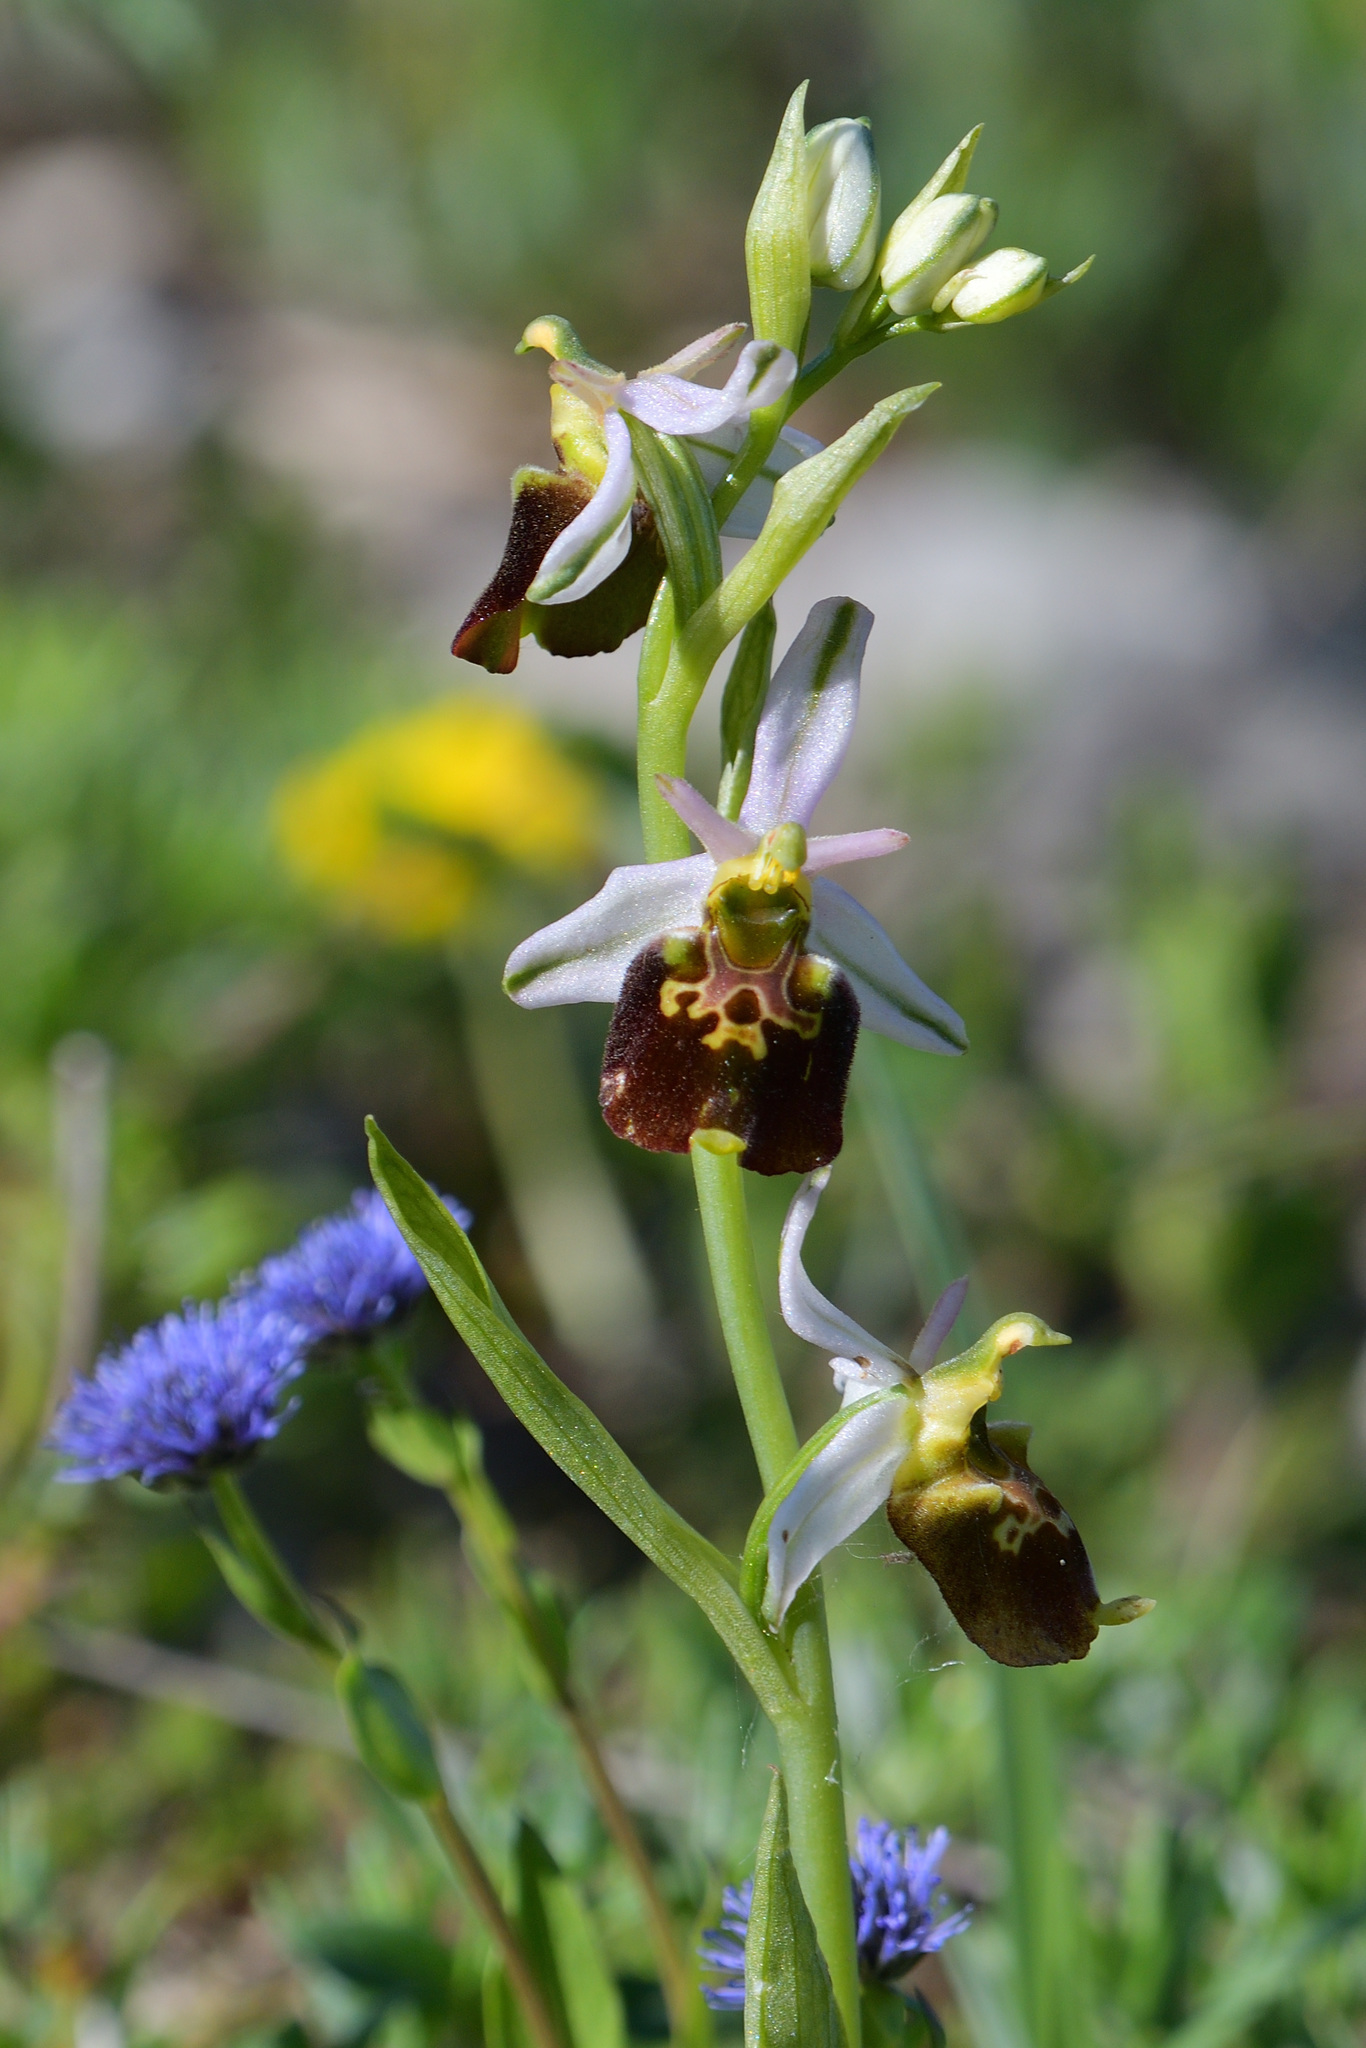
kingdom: Plantae
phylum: Tracheophyta
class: Liliopsida
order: Asparagales
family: Orchidaceae
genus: Ophrys
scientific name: Ophrys holosericea
